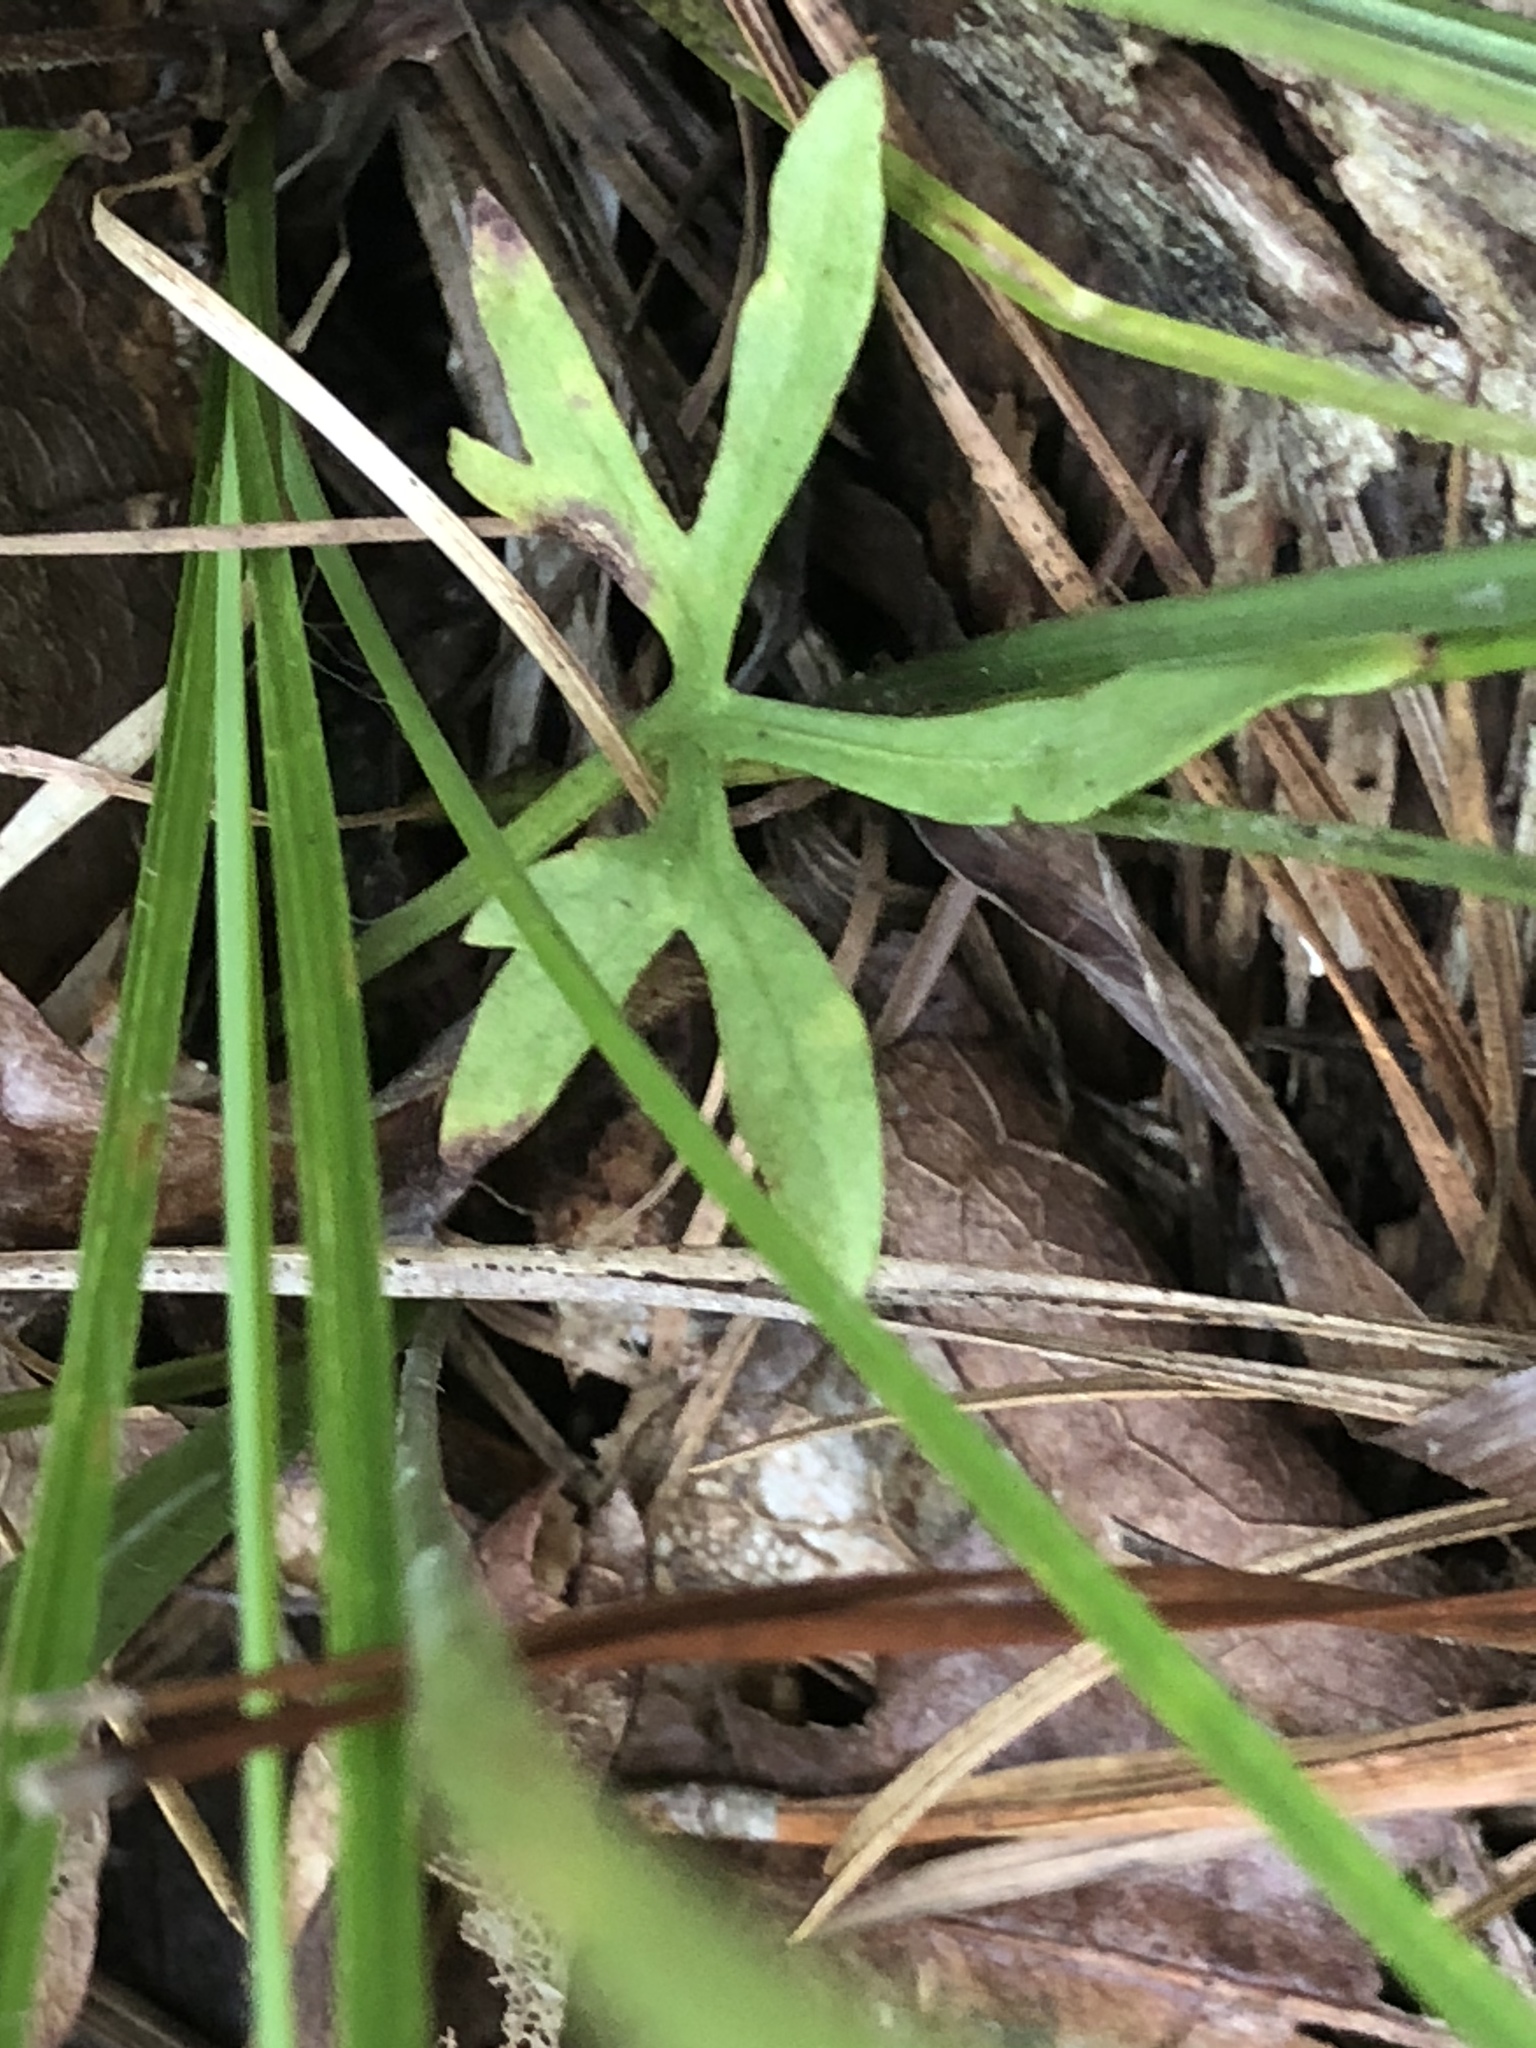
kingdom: Plantae
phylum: Tracheophyta
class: Magnoliopsida
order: Malpighiales
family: Violaceae
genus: Viola
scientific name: Viola pedata
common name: Pansy violet
